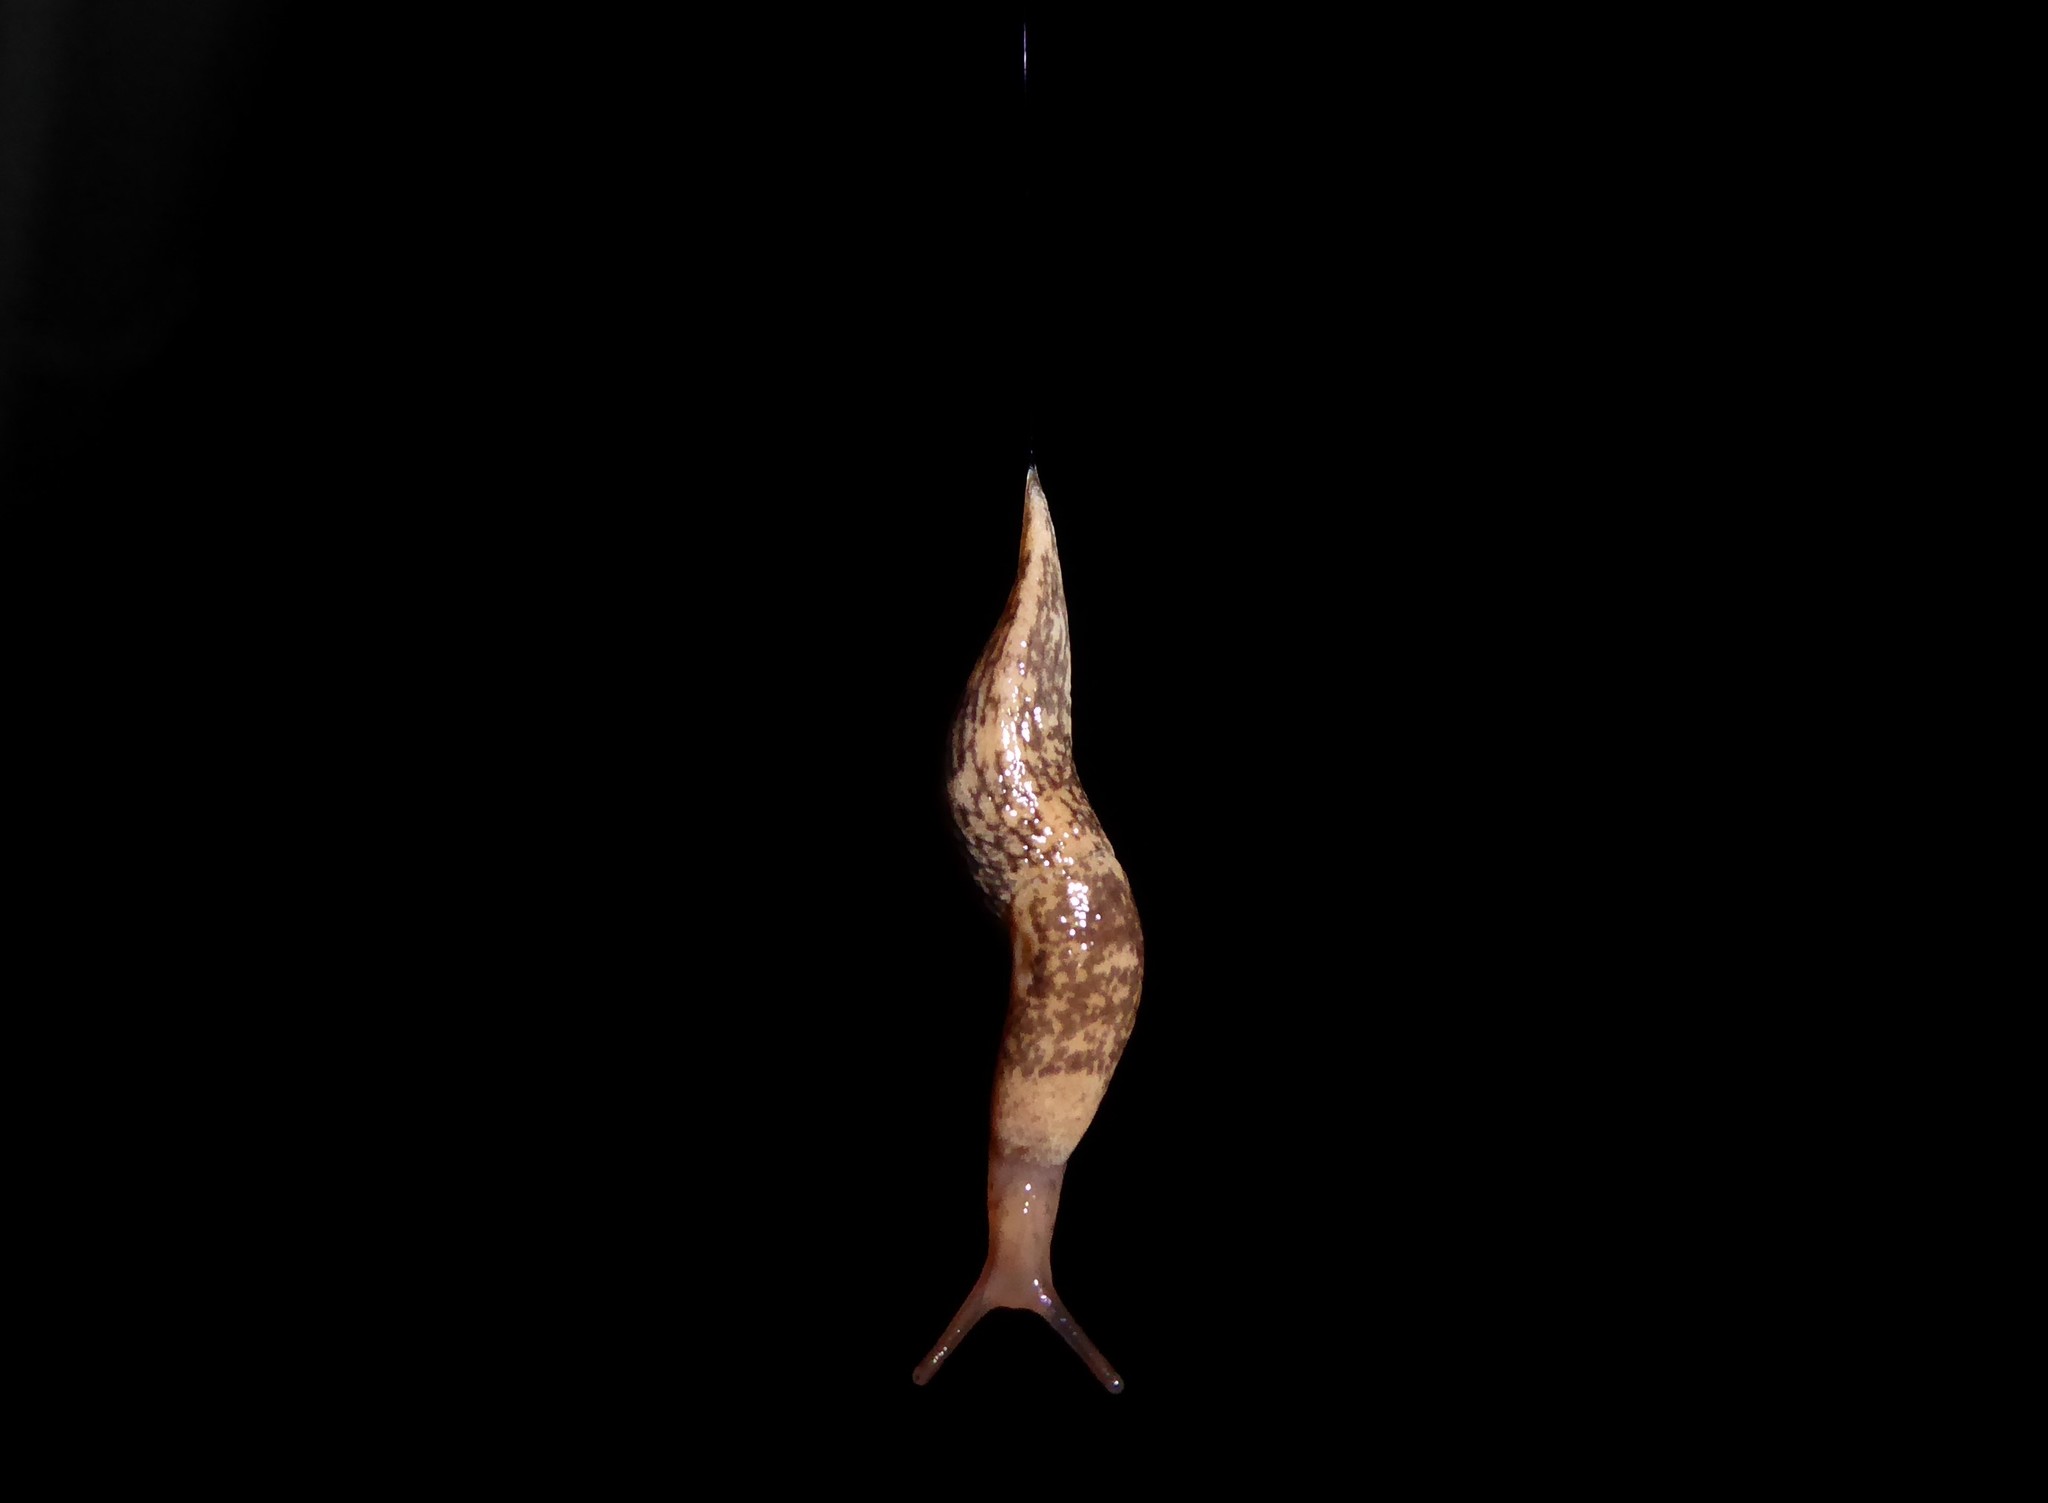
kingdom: Animalia
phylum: Mollusca
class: Gastropoda
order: Stylommatophora
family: Agriolimacidae
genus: Deroceras
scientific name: Deroceras reticulatum
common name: Gray field slug
